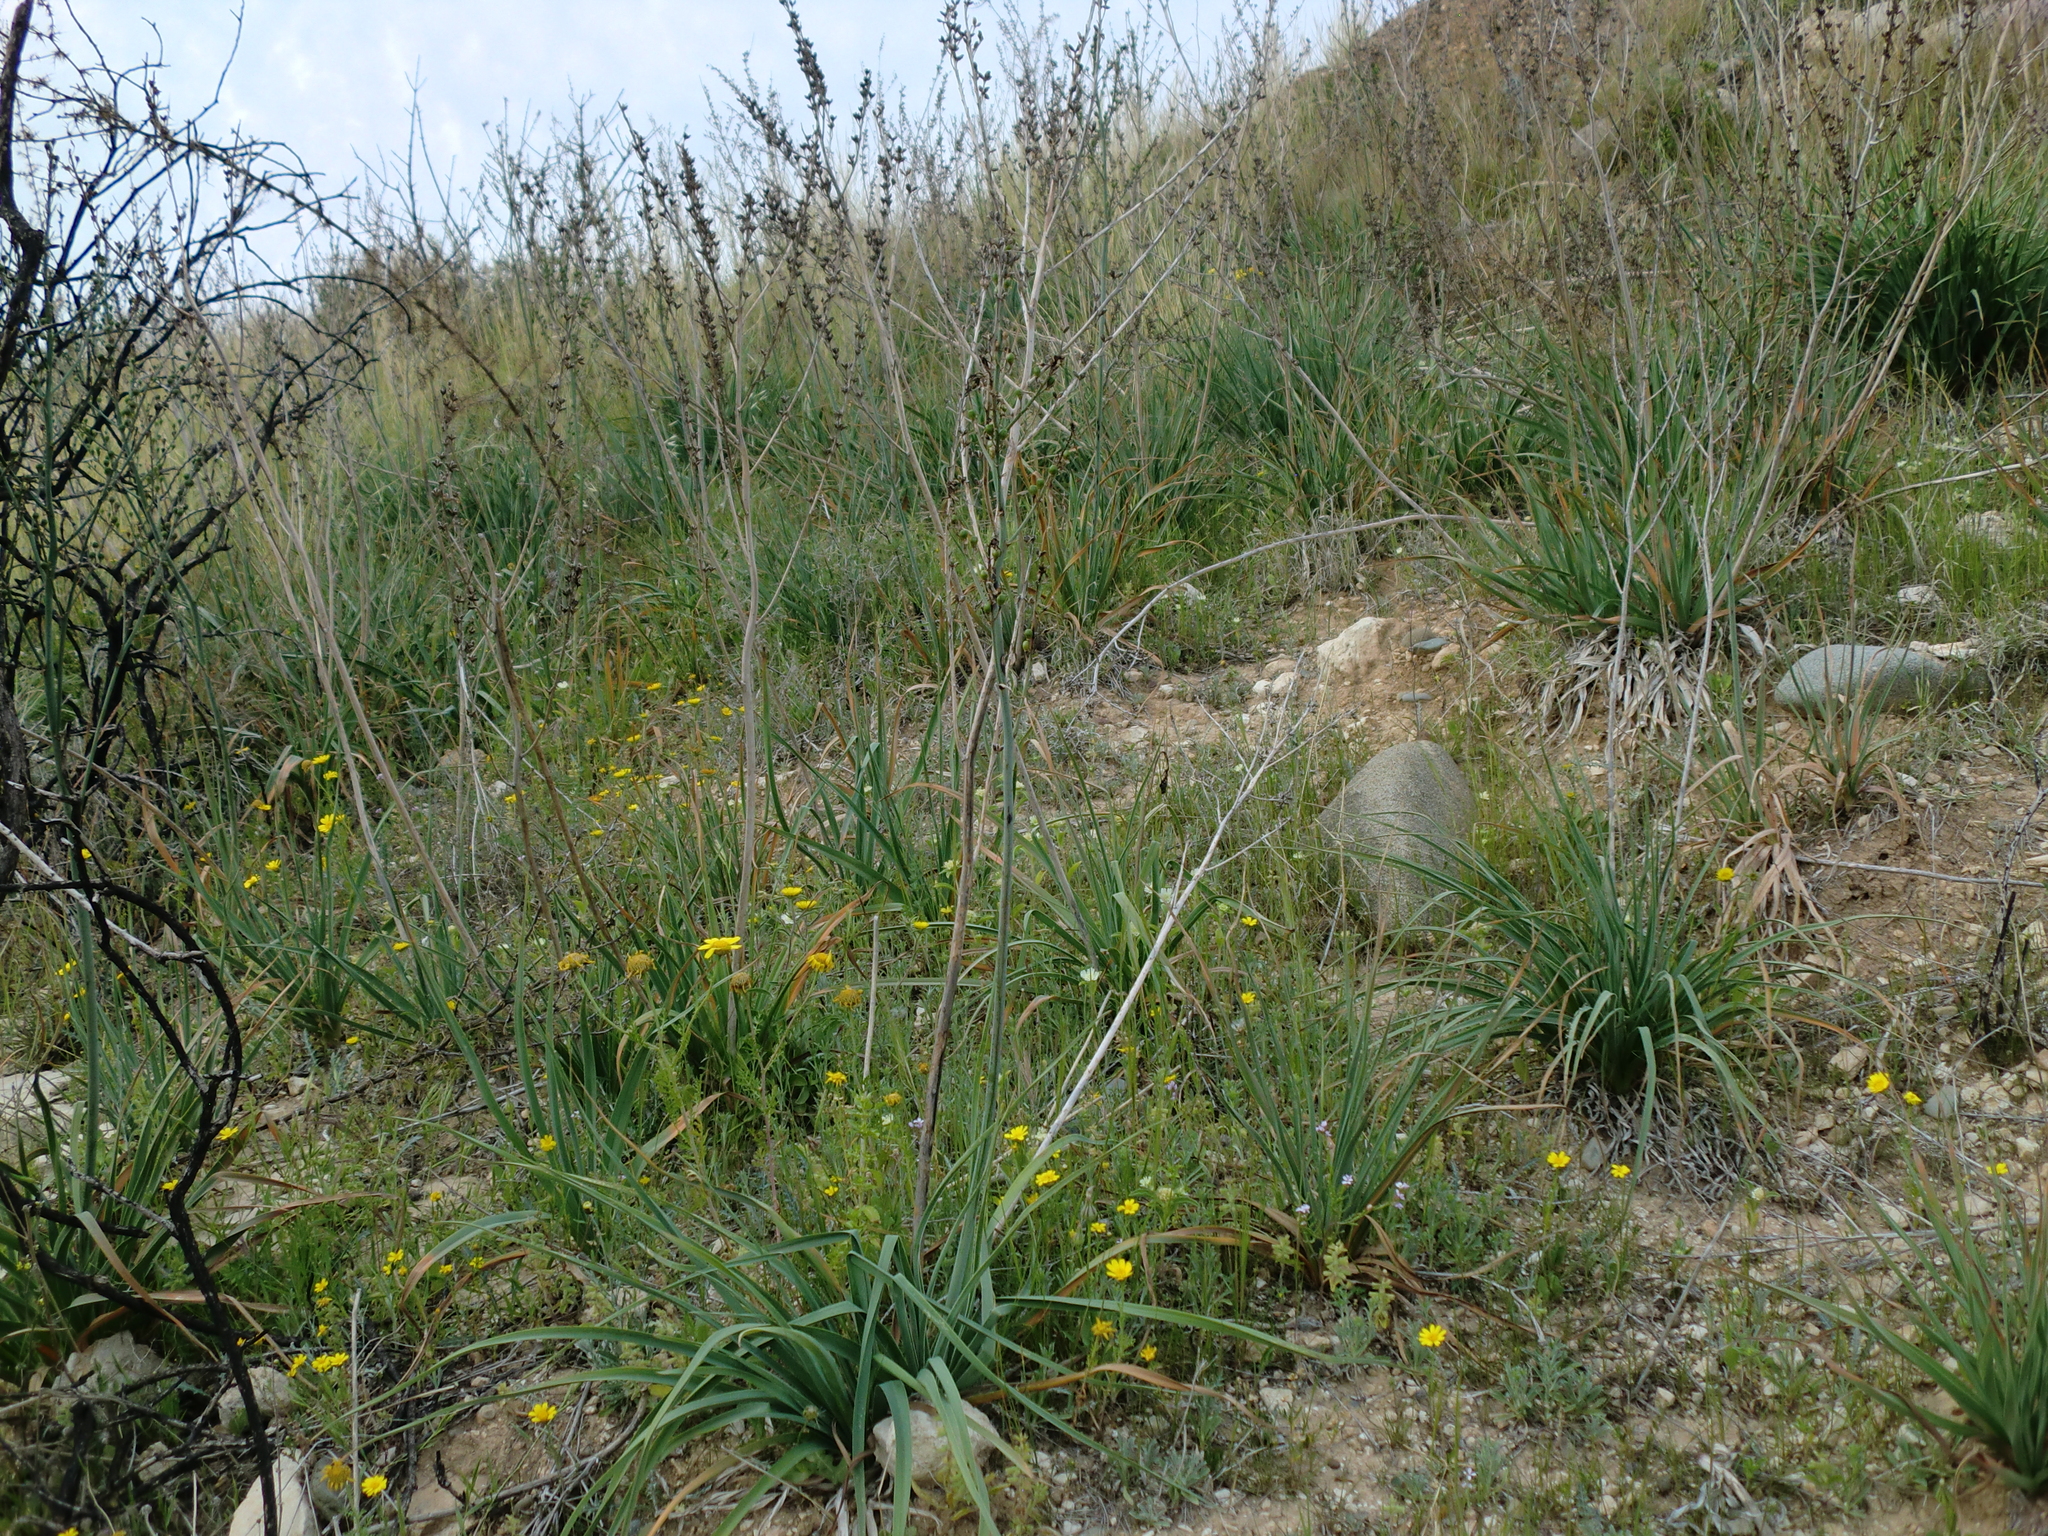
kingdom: Plantae
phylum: Tracheophyta
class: Liliopsida
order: Asparagales
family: Asphodelaceae
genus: Asphodelus
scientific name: Asphodelus ramosus
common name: Silverrod
